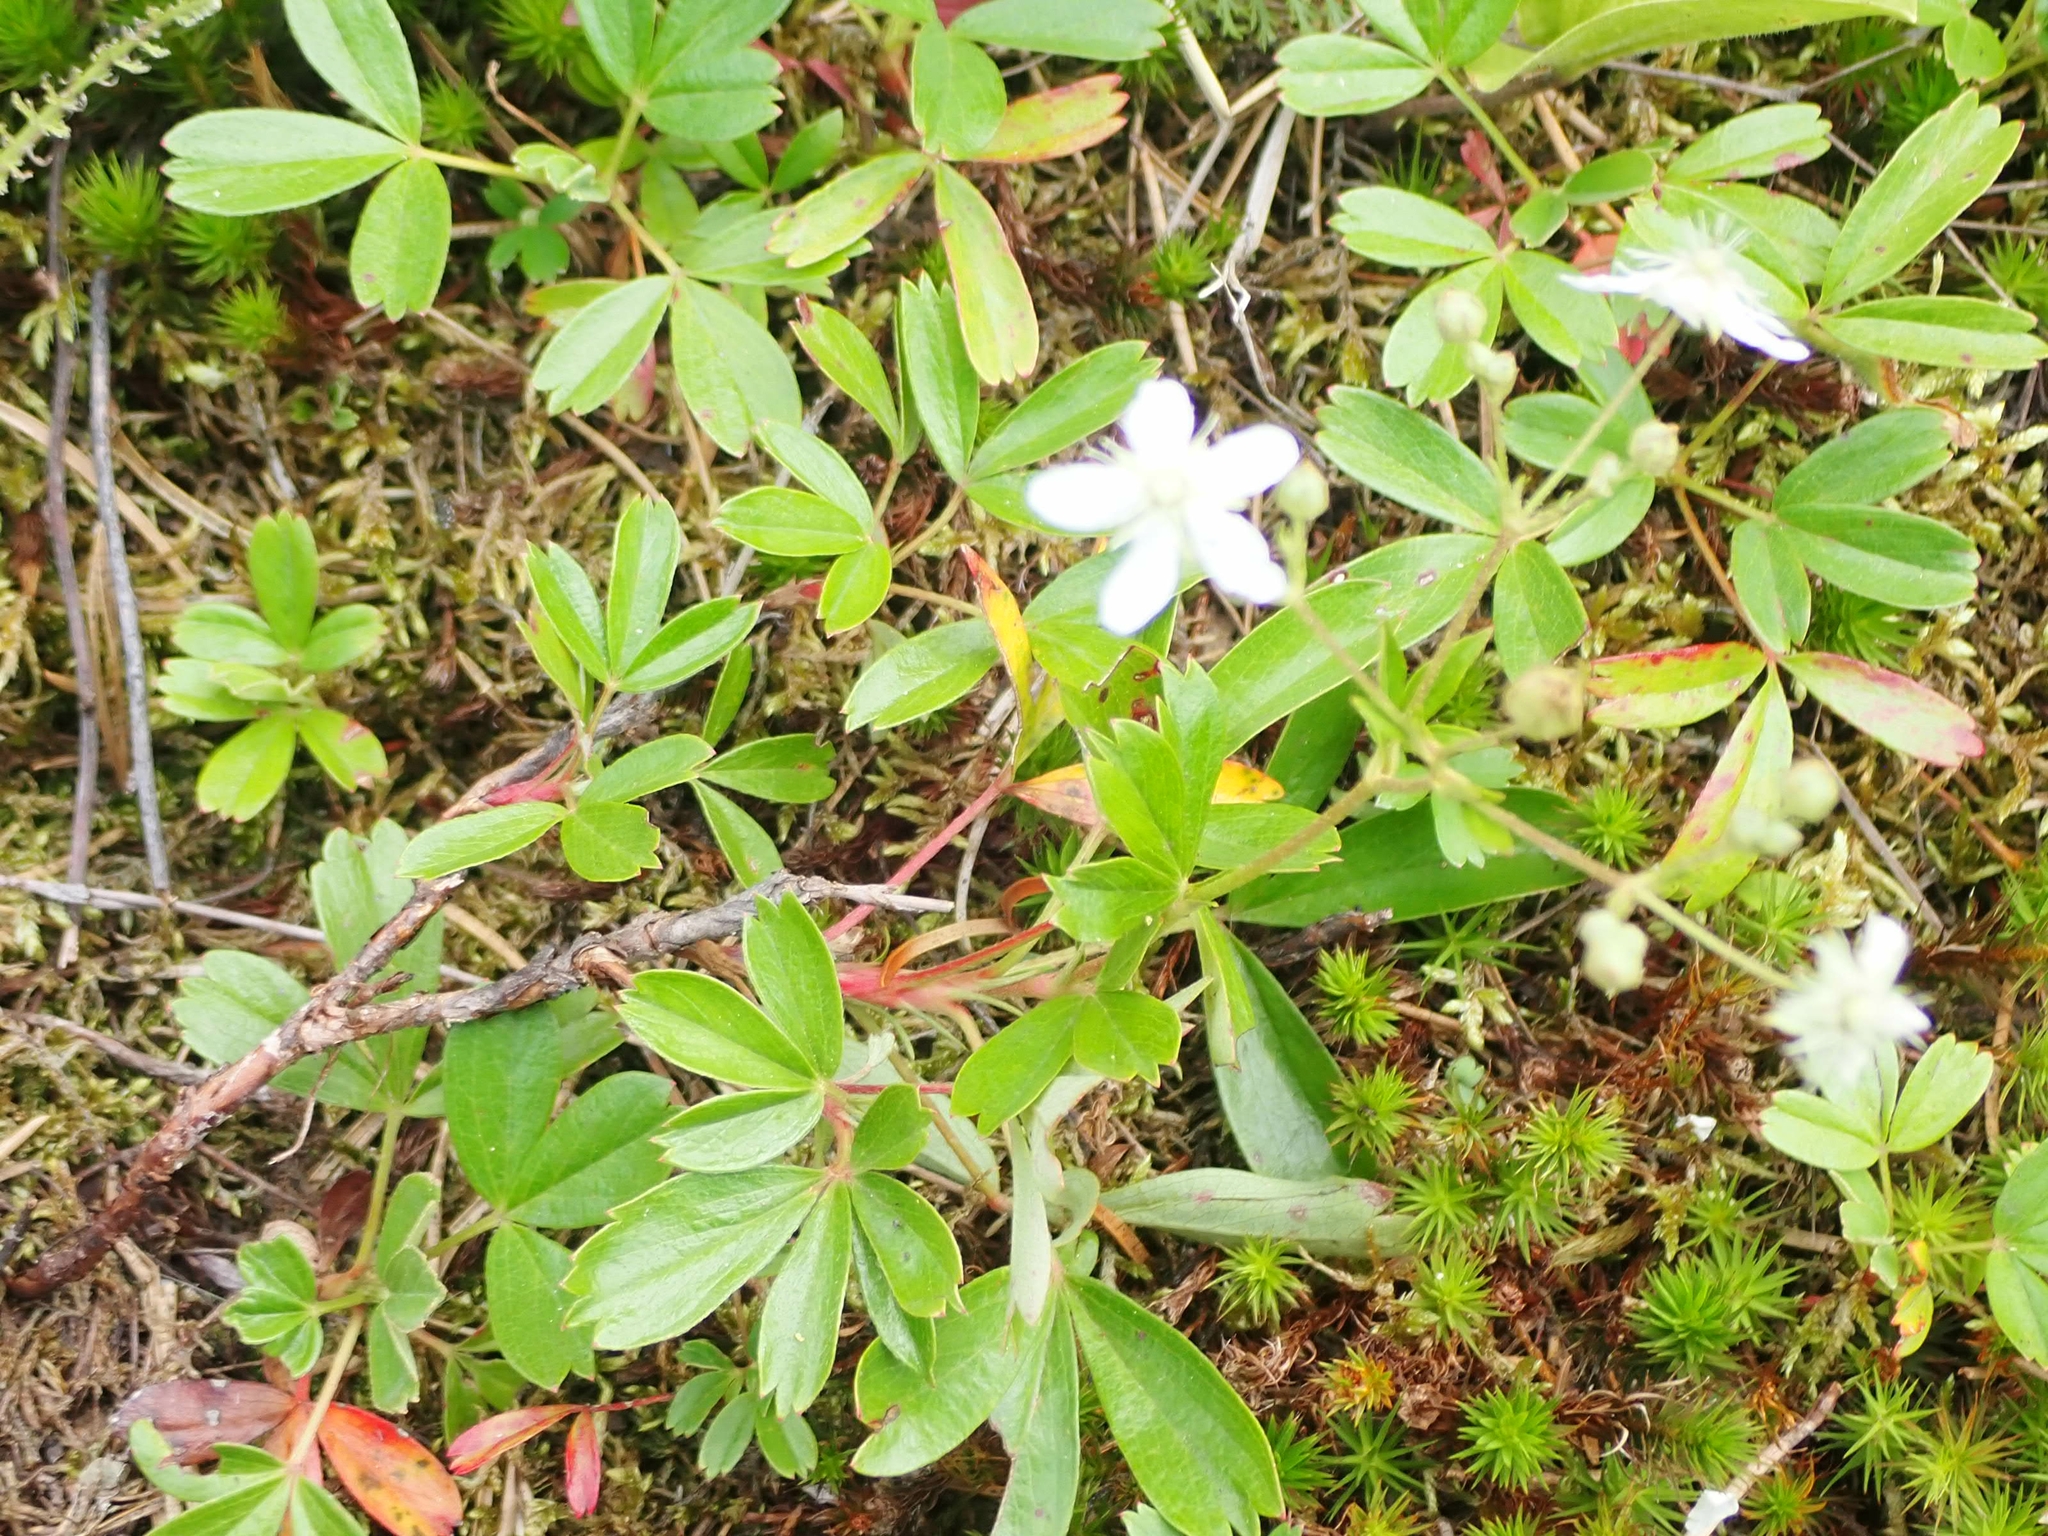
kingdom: Plantae
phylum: Tracheophyta
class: Magnoliopsida
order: Rosales
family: Rosaceae
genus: Sibbaldia
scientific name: Sibbaldia tridentata
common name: Three-toothed cinquefoil
